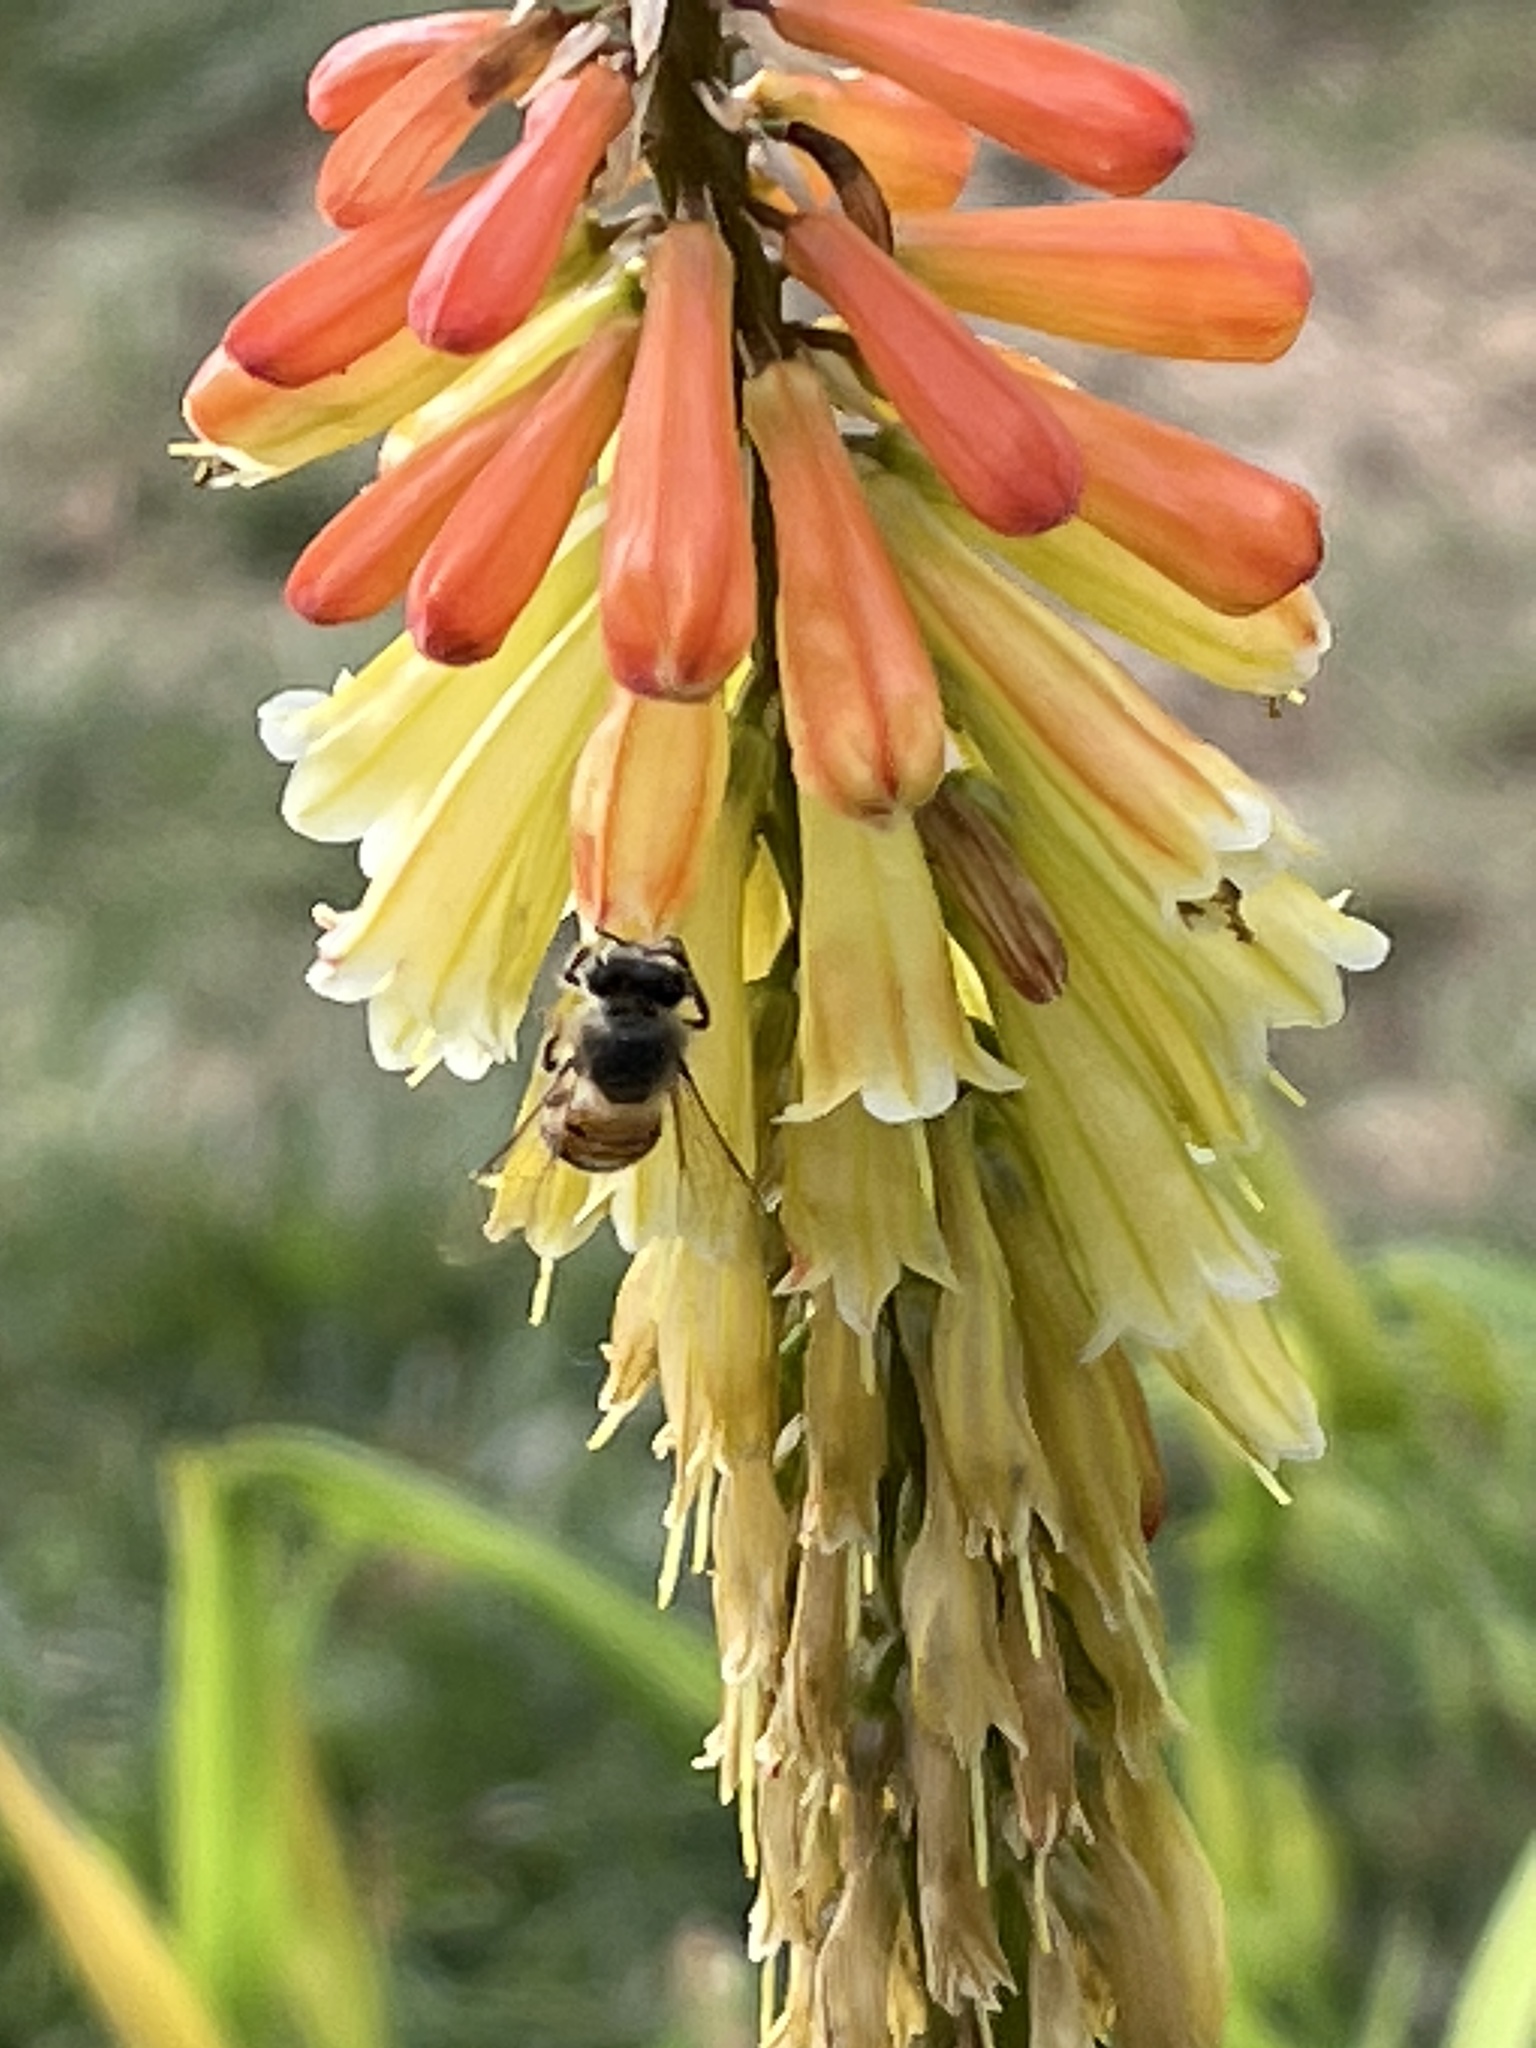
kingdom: Animalia
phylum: Arthropoda
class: Insecta
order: Hymenoptera
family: Apidae
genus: Apis
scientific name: Apis mellifera
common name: Honey bee
